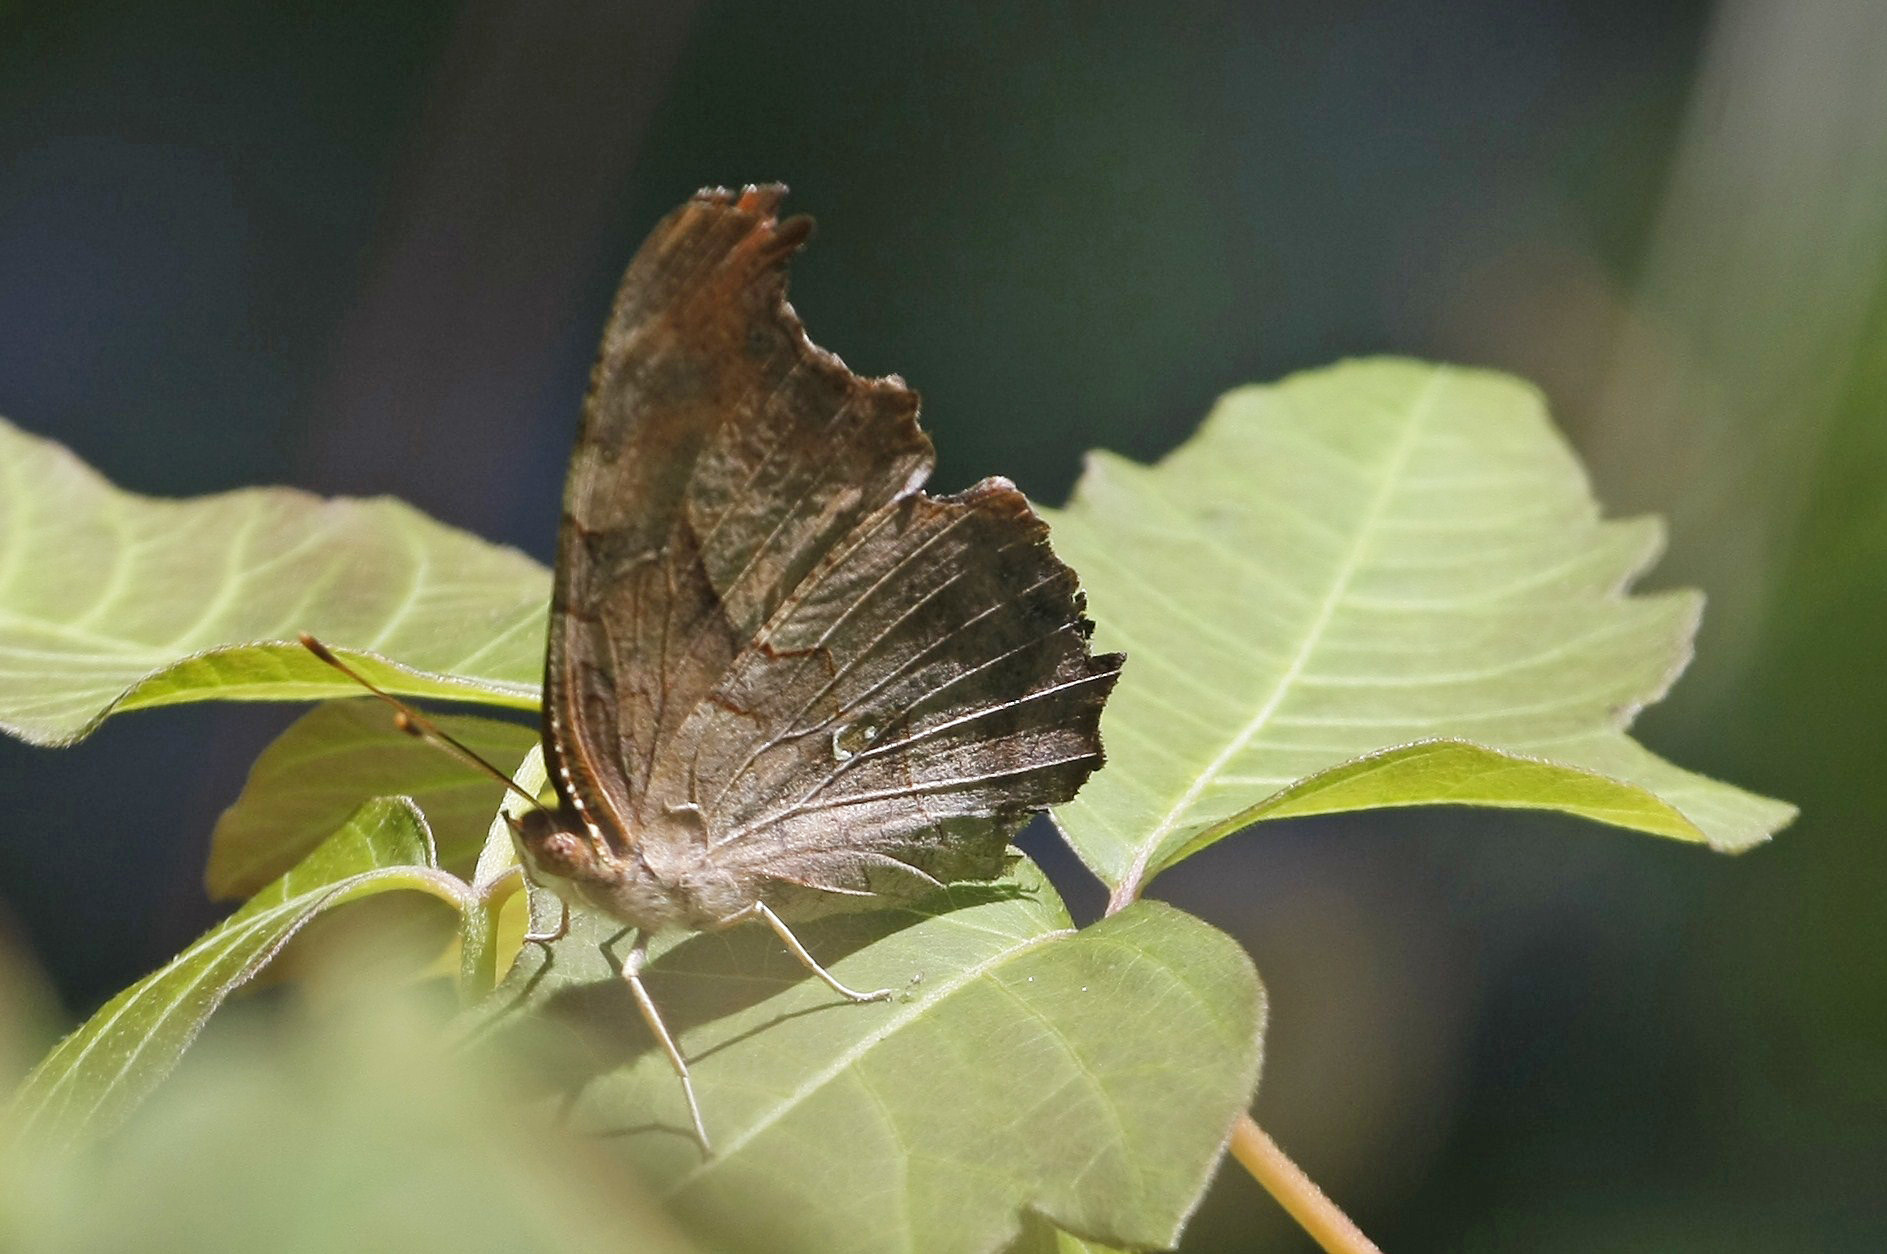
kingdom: Animalia
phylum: Arthropoda
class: Insecta
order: Lepidoptera
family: Nymphalidae
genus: Polygonia
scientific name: Polygonia interrogationis
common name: Question mark
